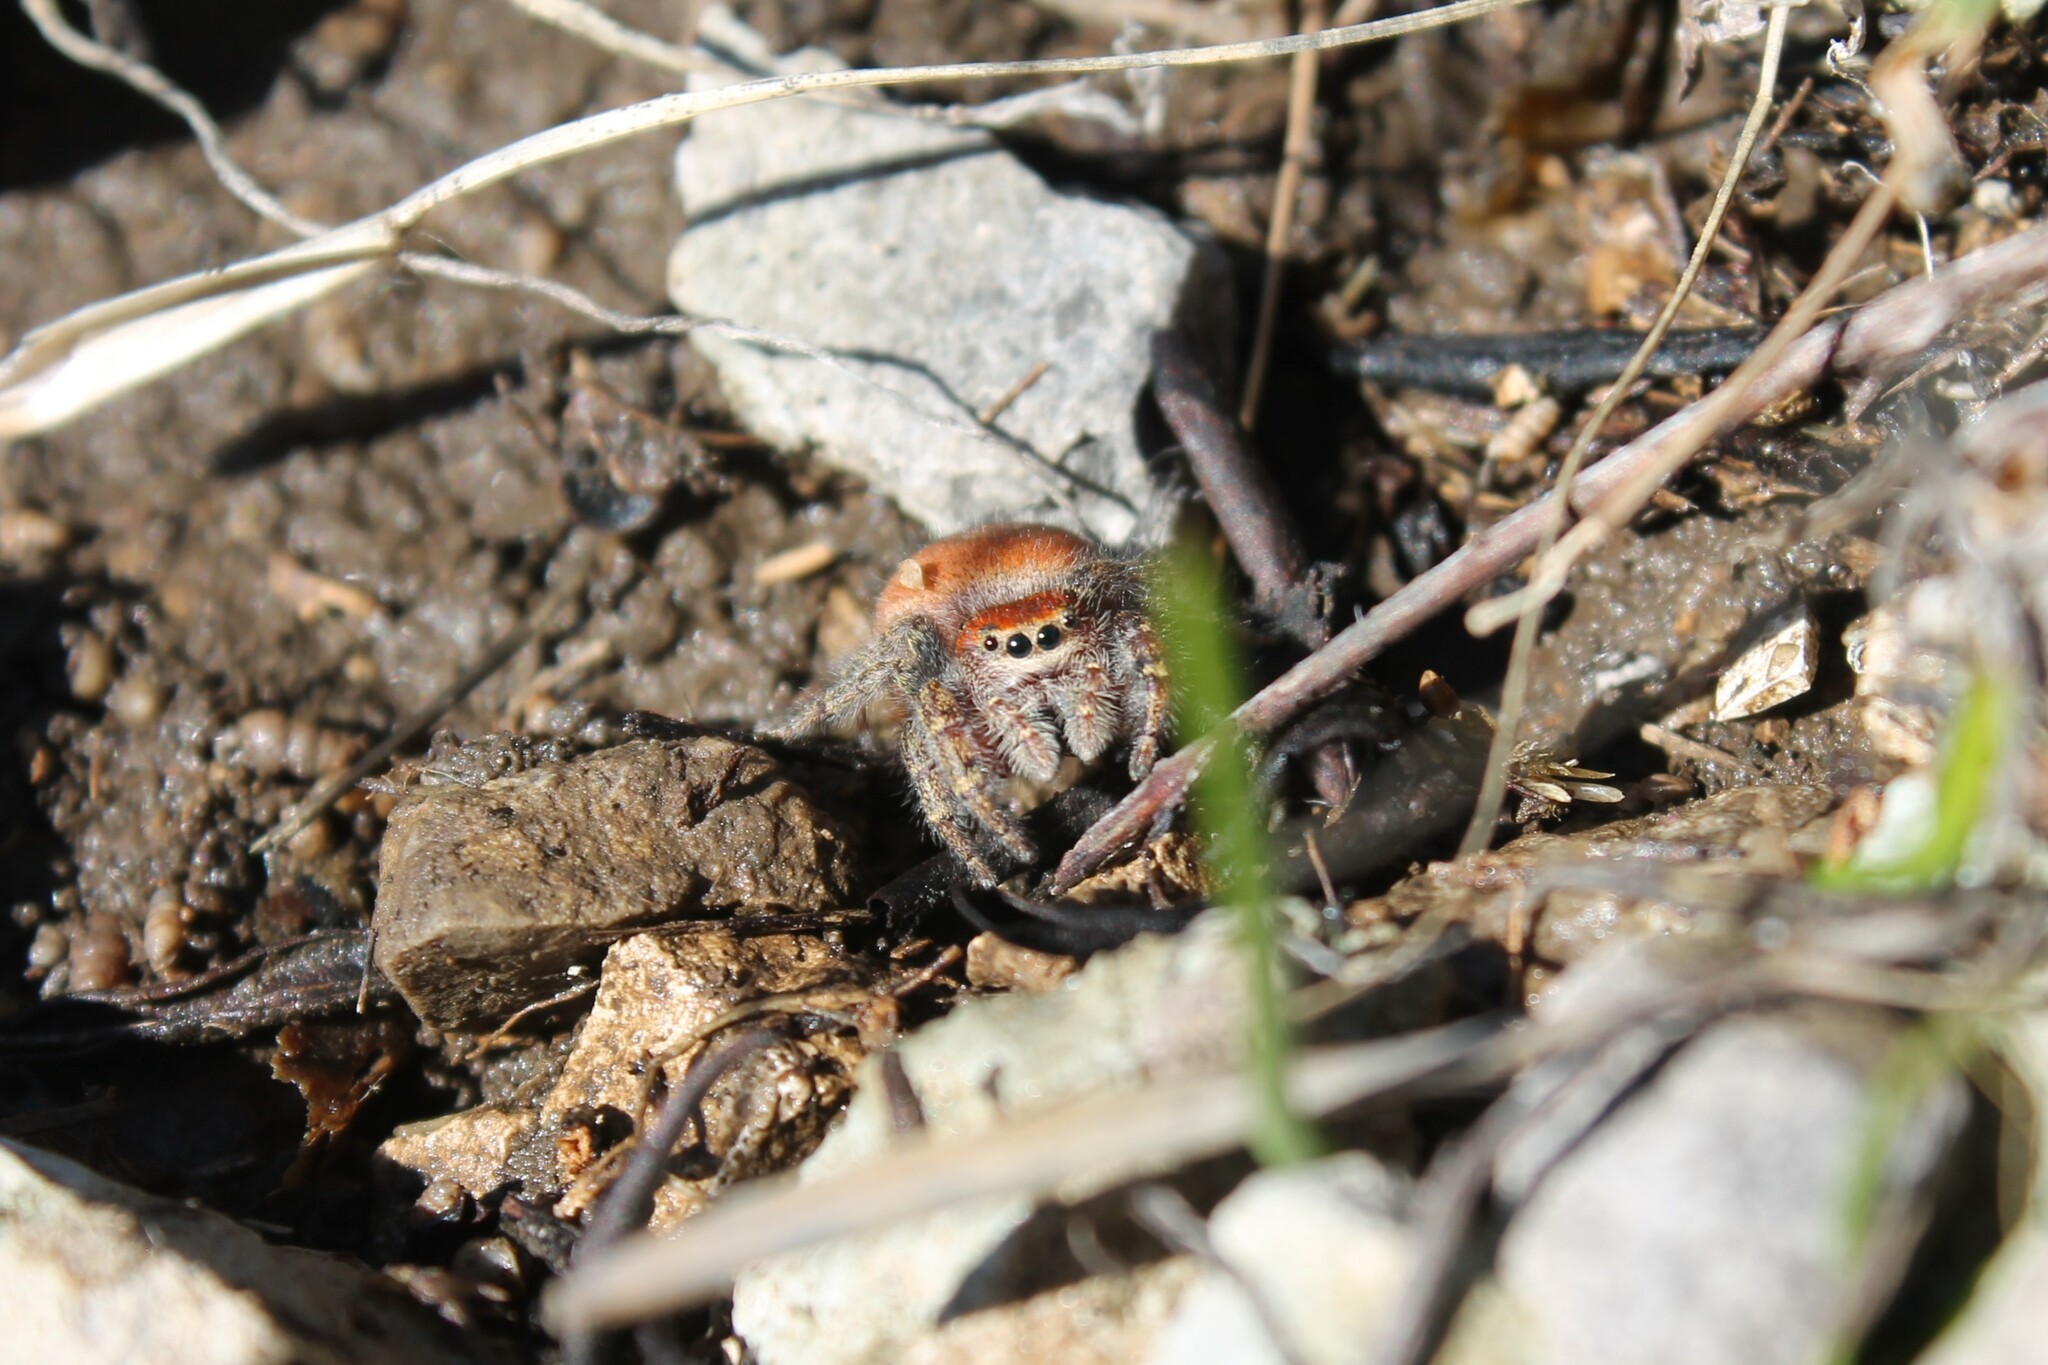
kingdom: Animalia
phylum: Arthropoda
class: Arachnida
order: Araneae
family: Salticidae
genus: Phidippus
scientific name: Phidippus cardinalis
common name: Cardinal jumper
